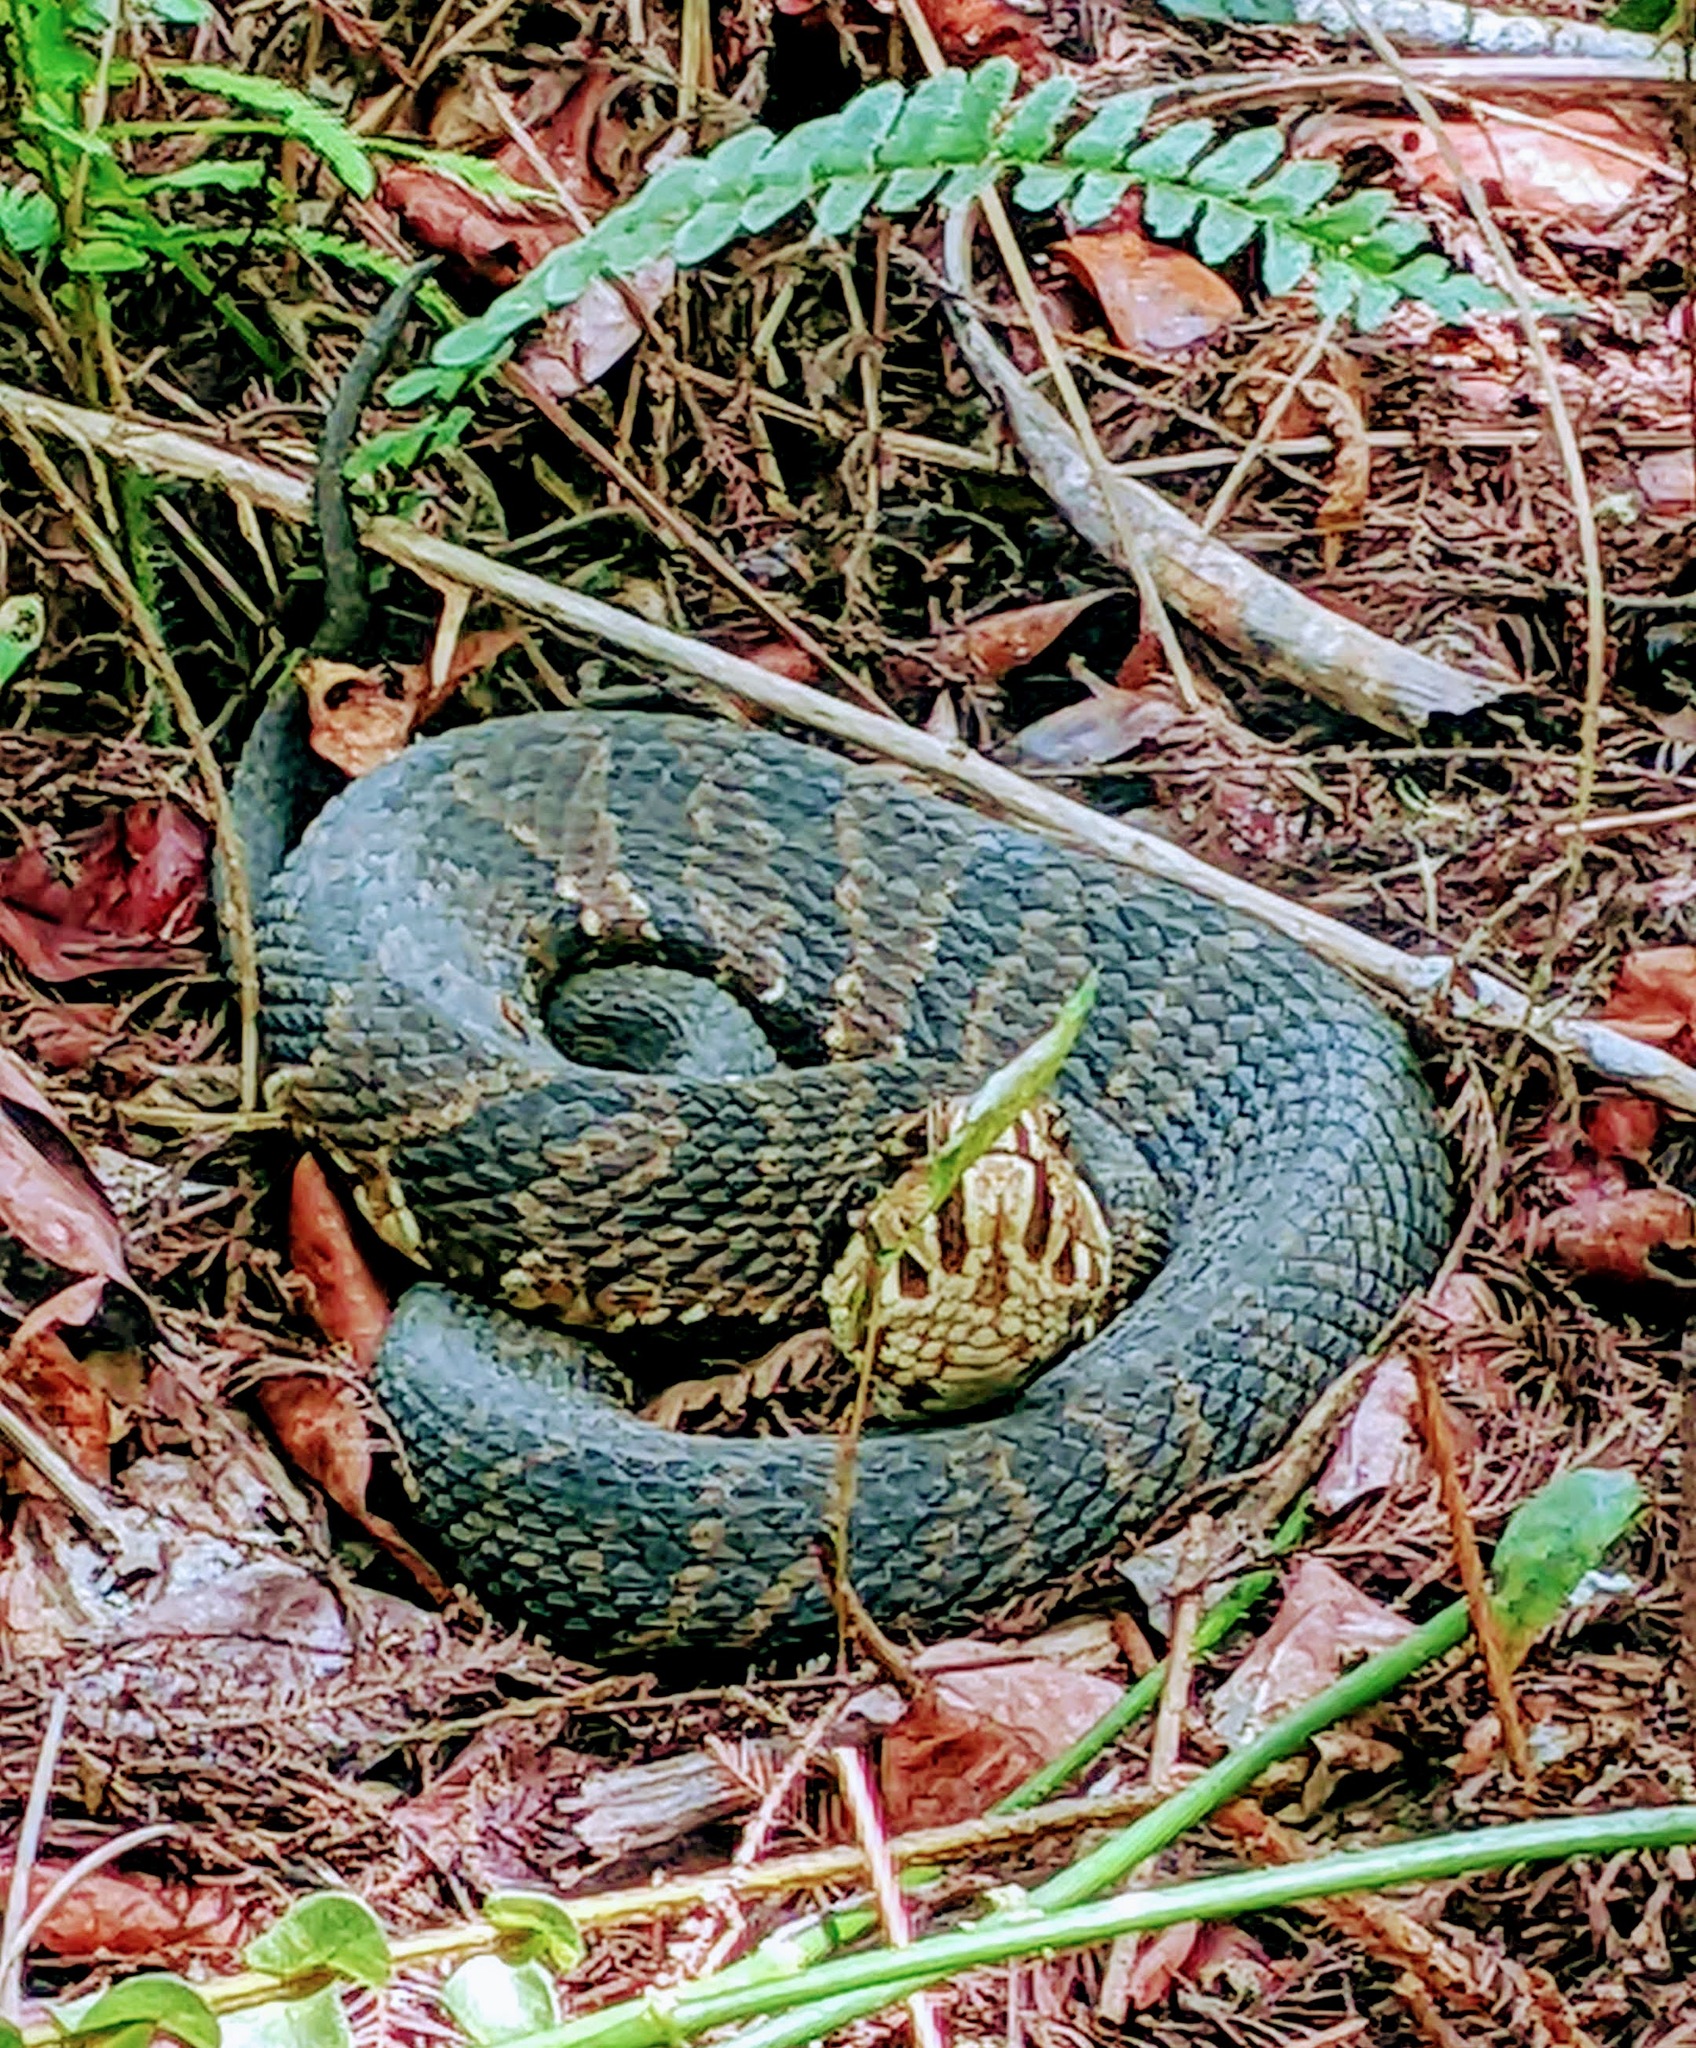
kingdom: Animalia
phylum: Chordata
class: Squamata
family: Viperidae
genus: Agkistrodon
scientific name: Agkistrodon conanti
